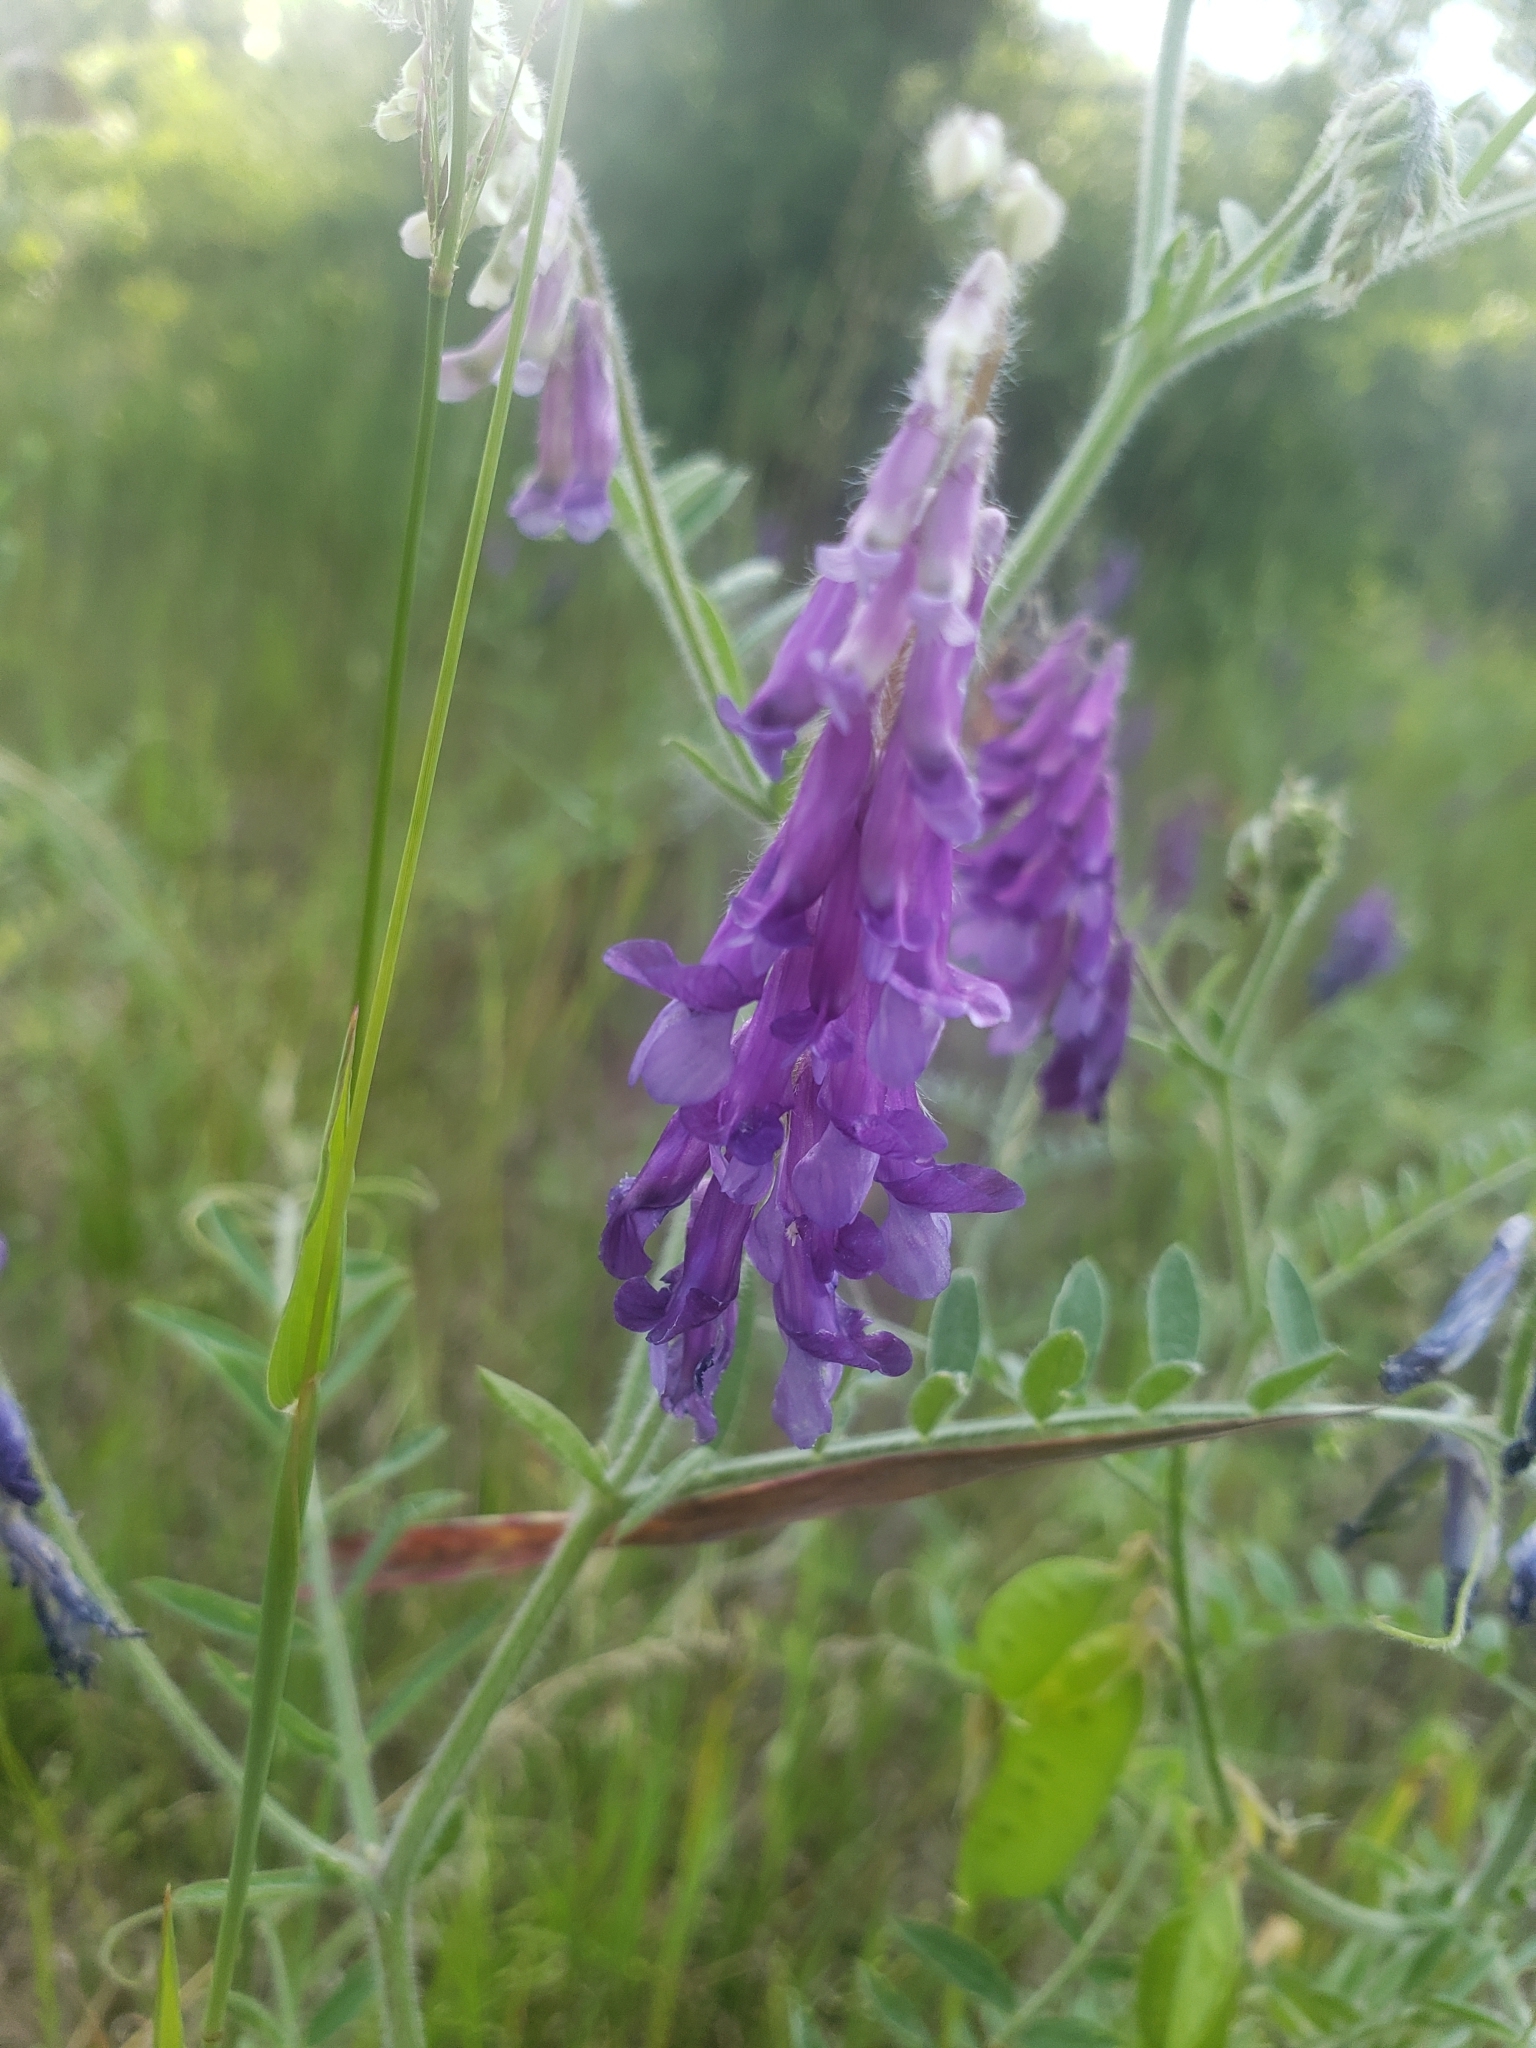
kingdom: Plantae
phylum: Tracheophyta
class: Magnoliopsida
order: Fabales
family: Fabaceae
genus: Vicia
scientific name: Vicia villosa
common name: Fodder vetch
